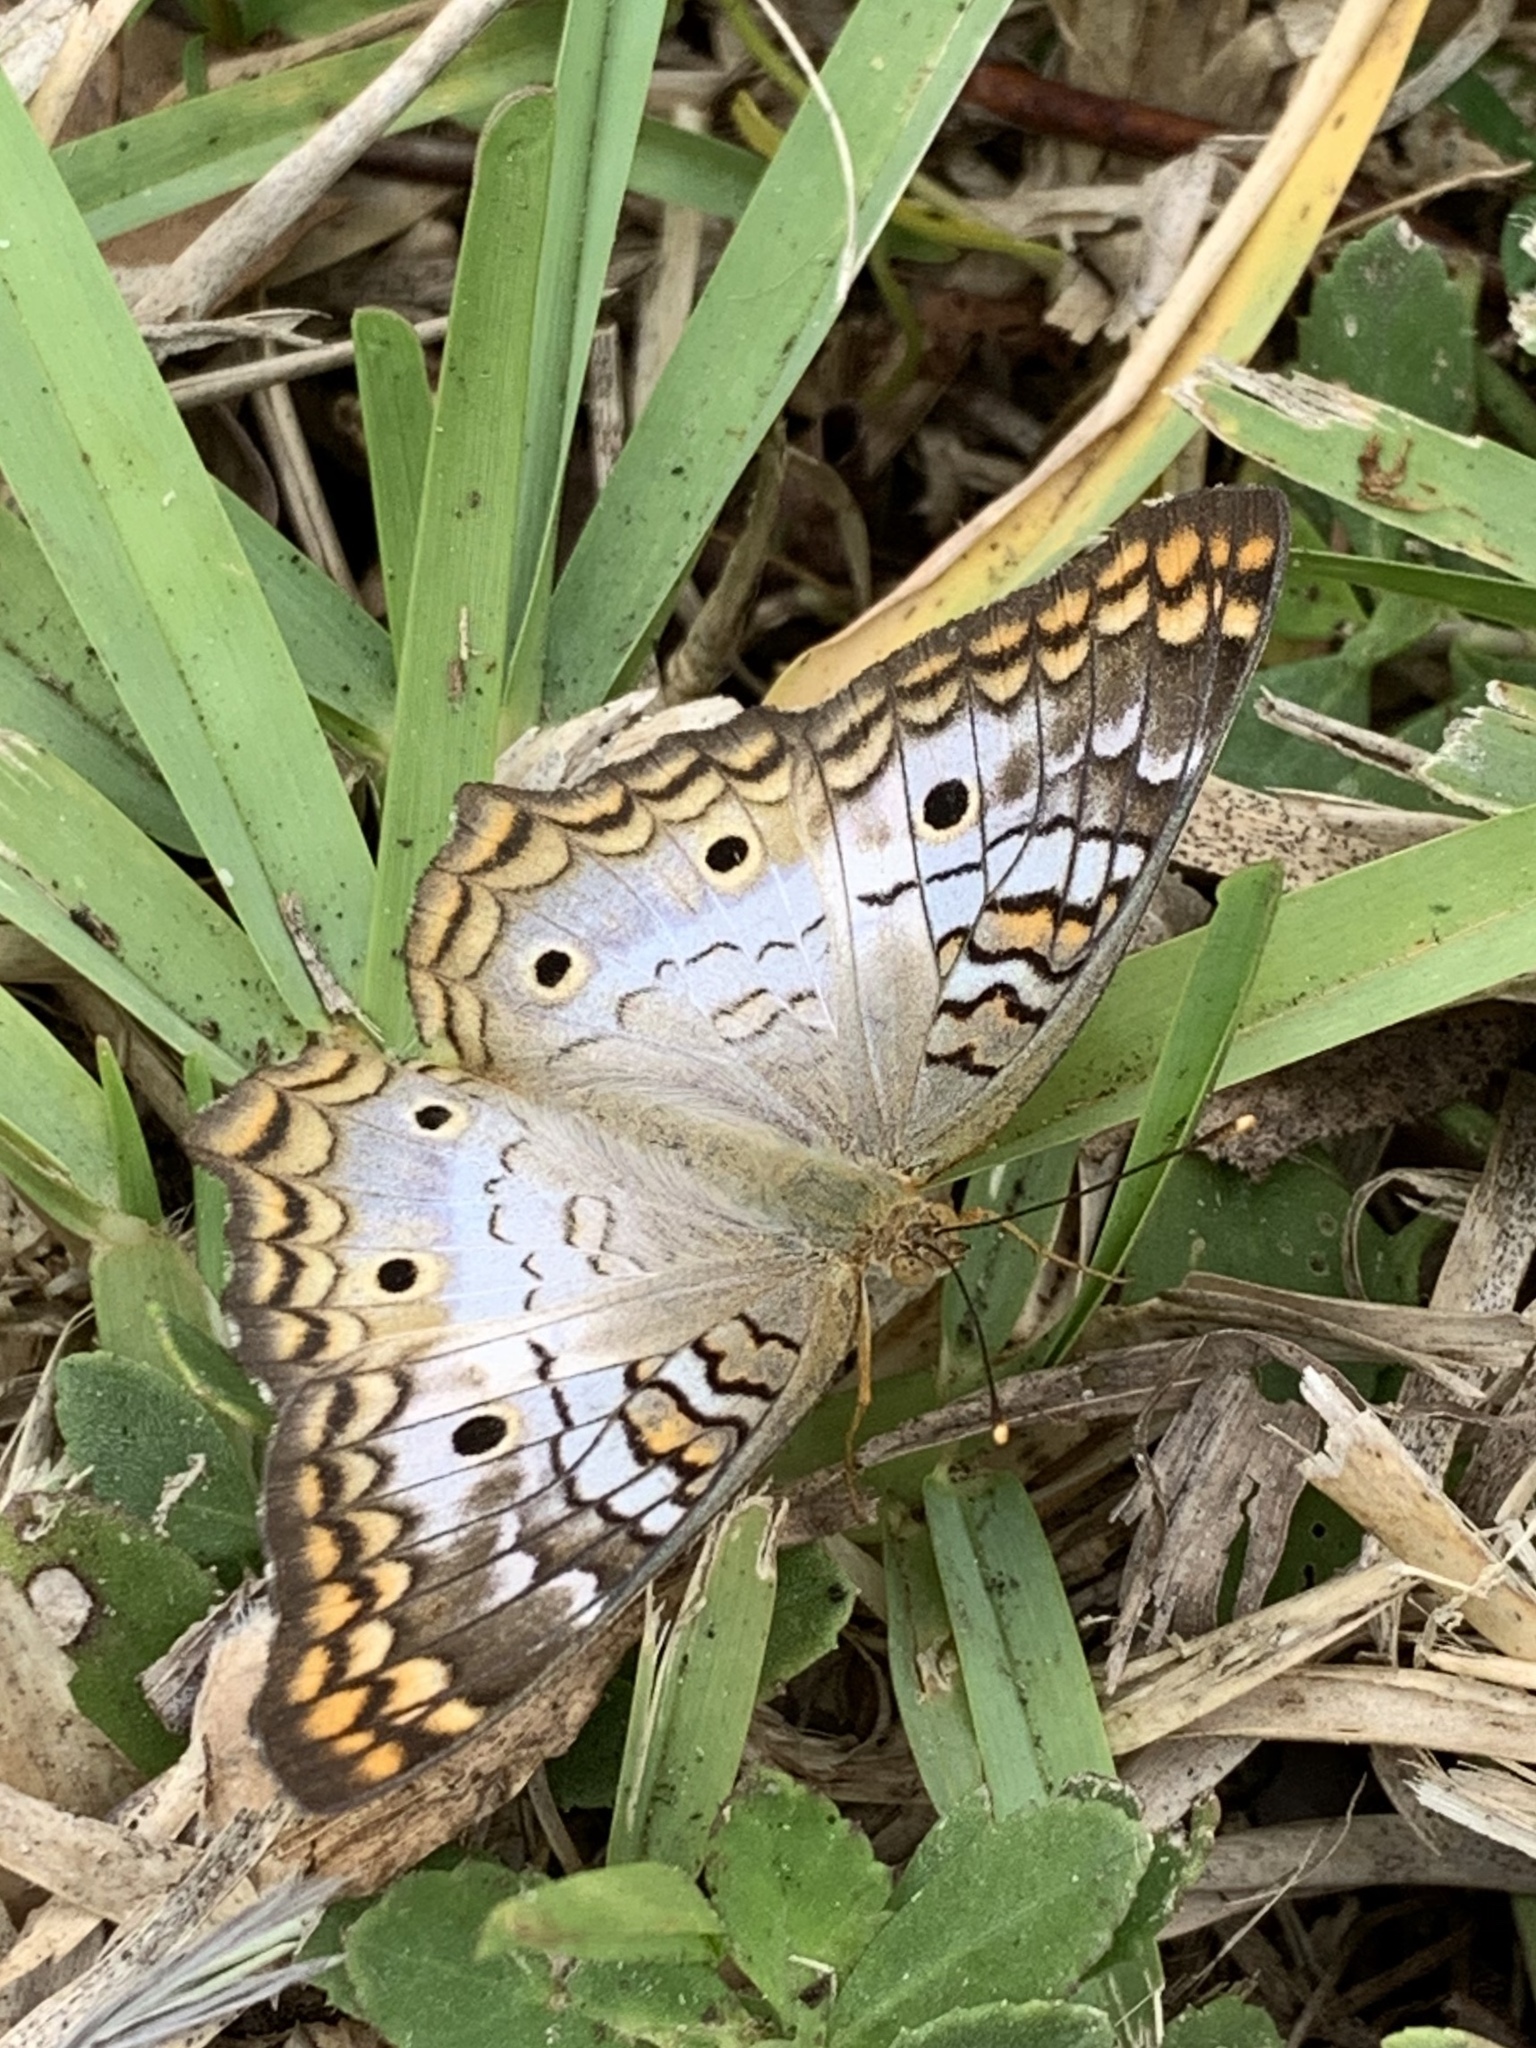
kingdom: Animalia
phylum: Arthropoda
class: Insecta
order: Lepidoptera
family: Nymphalidae
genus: Anartia
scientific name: Anartia jatrophae
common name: White peacock
